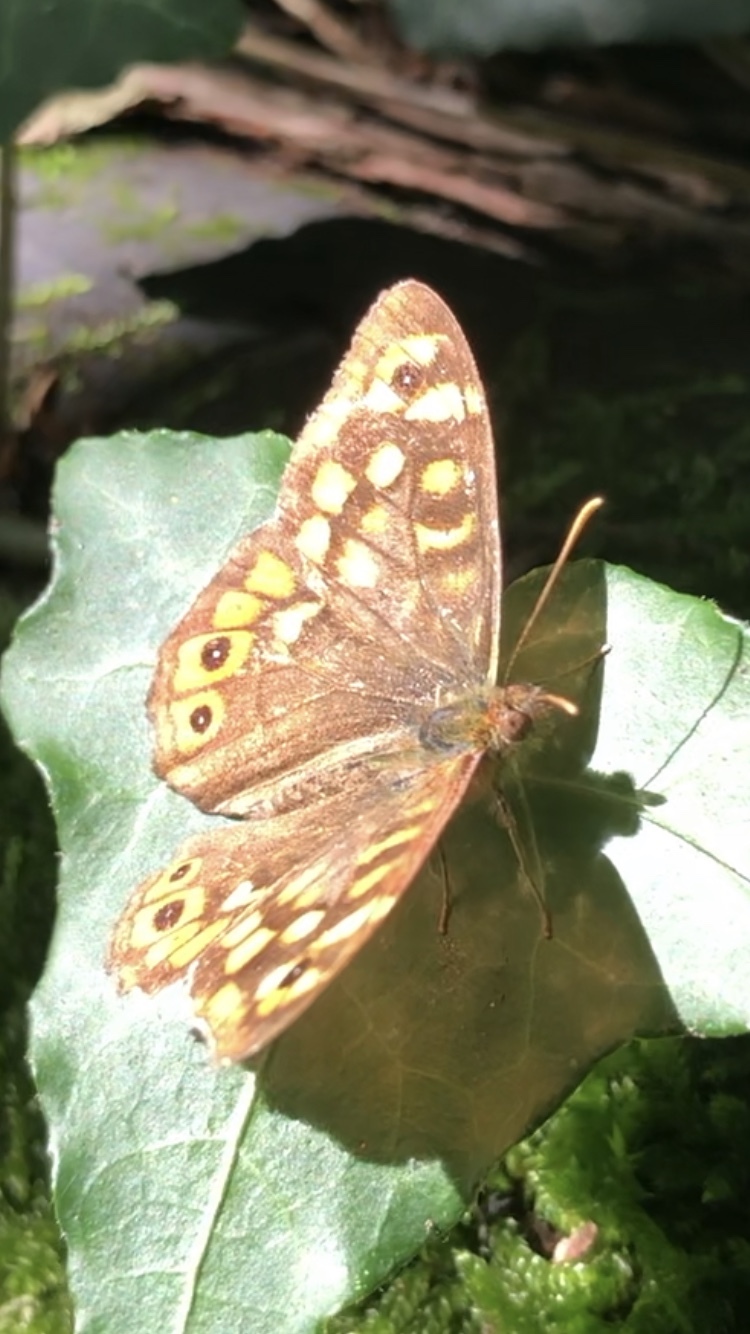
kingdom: Animalia
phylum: Arthropoda
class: Insecta
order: Lepidoptera
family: Nymphalidae
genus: Pararge
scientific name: Pararge aegeria
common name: Speckled wood
